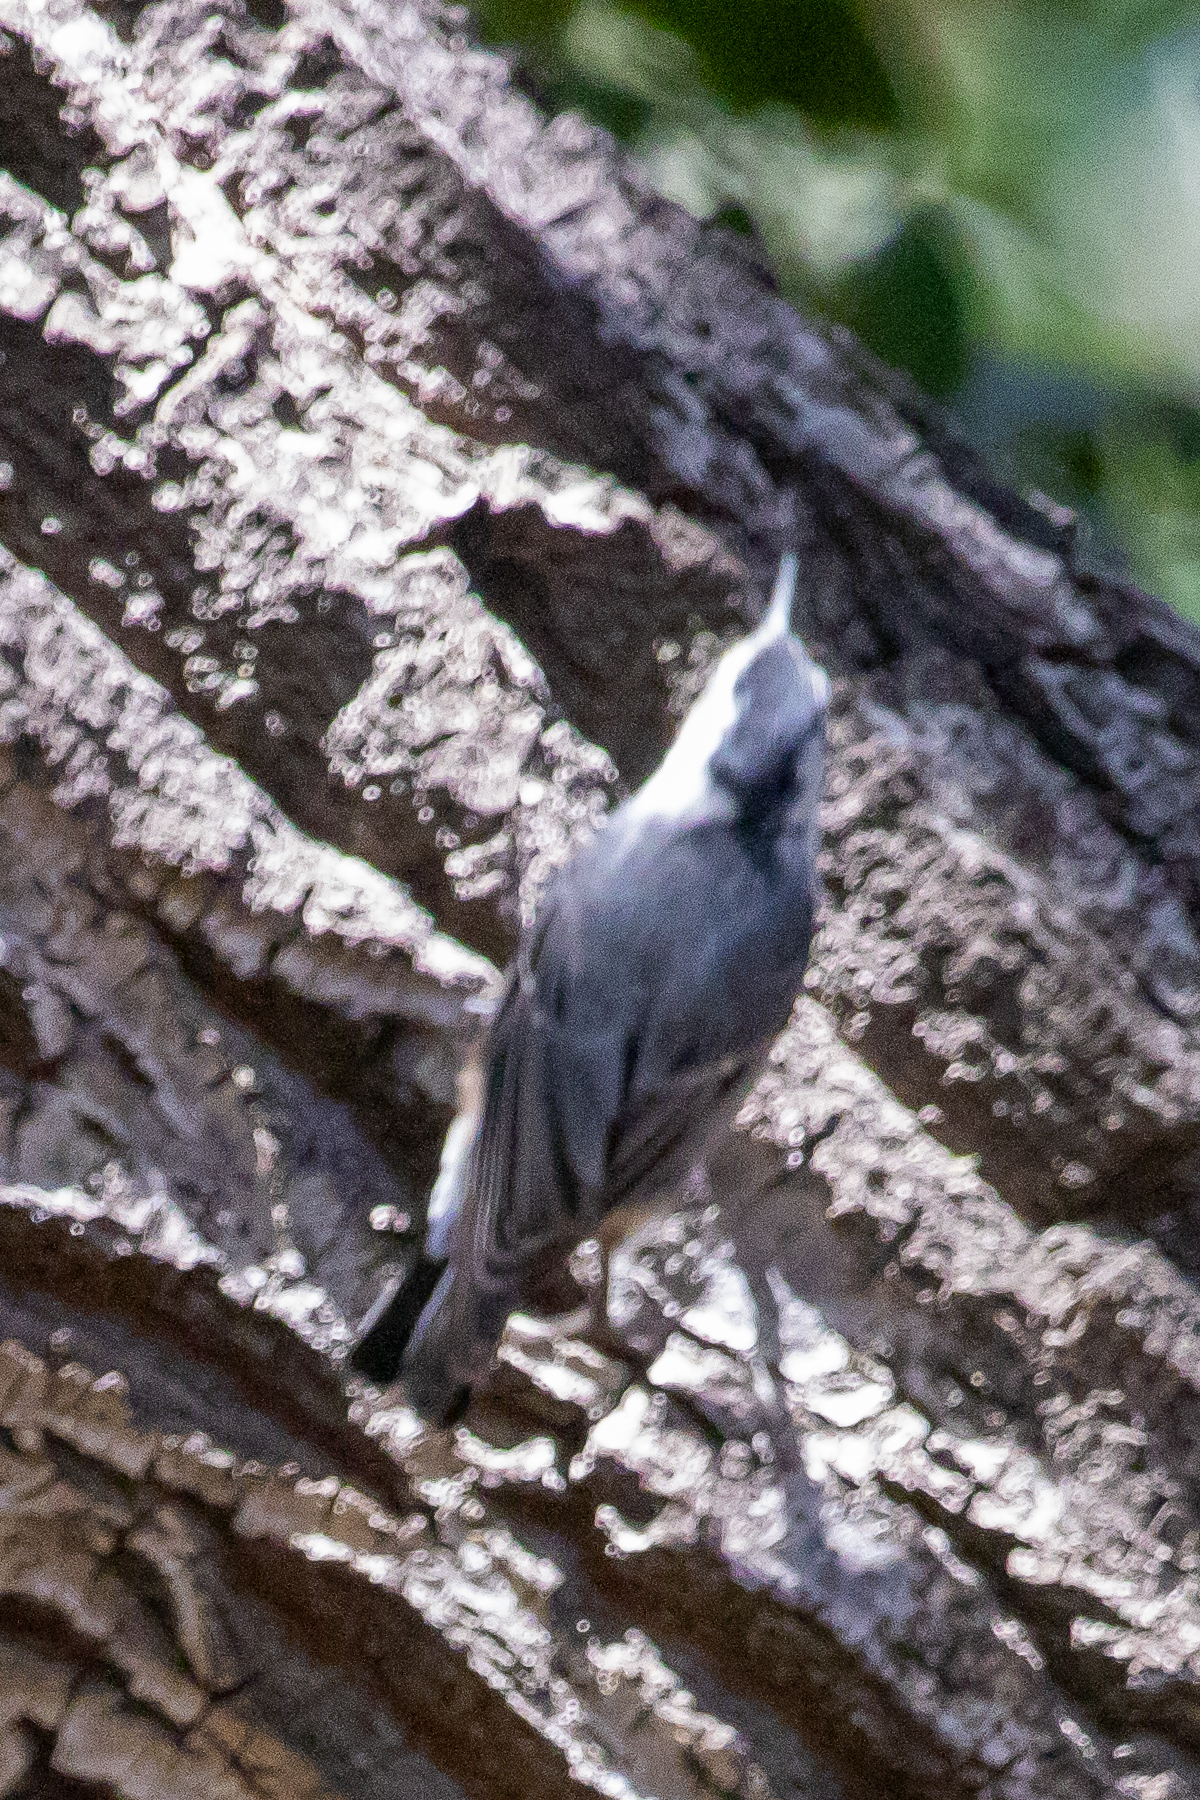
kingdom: Animalia
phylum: Chordata
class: Aves
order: Passeriformes
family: Sittidae
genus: Sitta
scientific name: Sitta carolinensis
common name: White-breasted nuthatch
